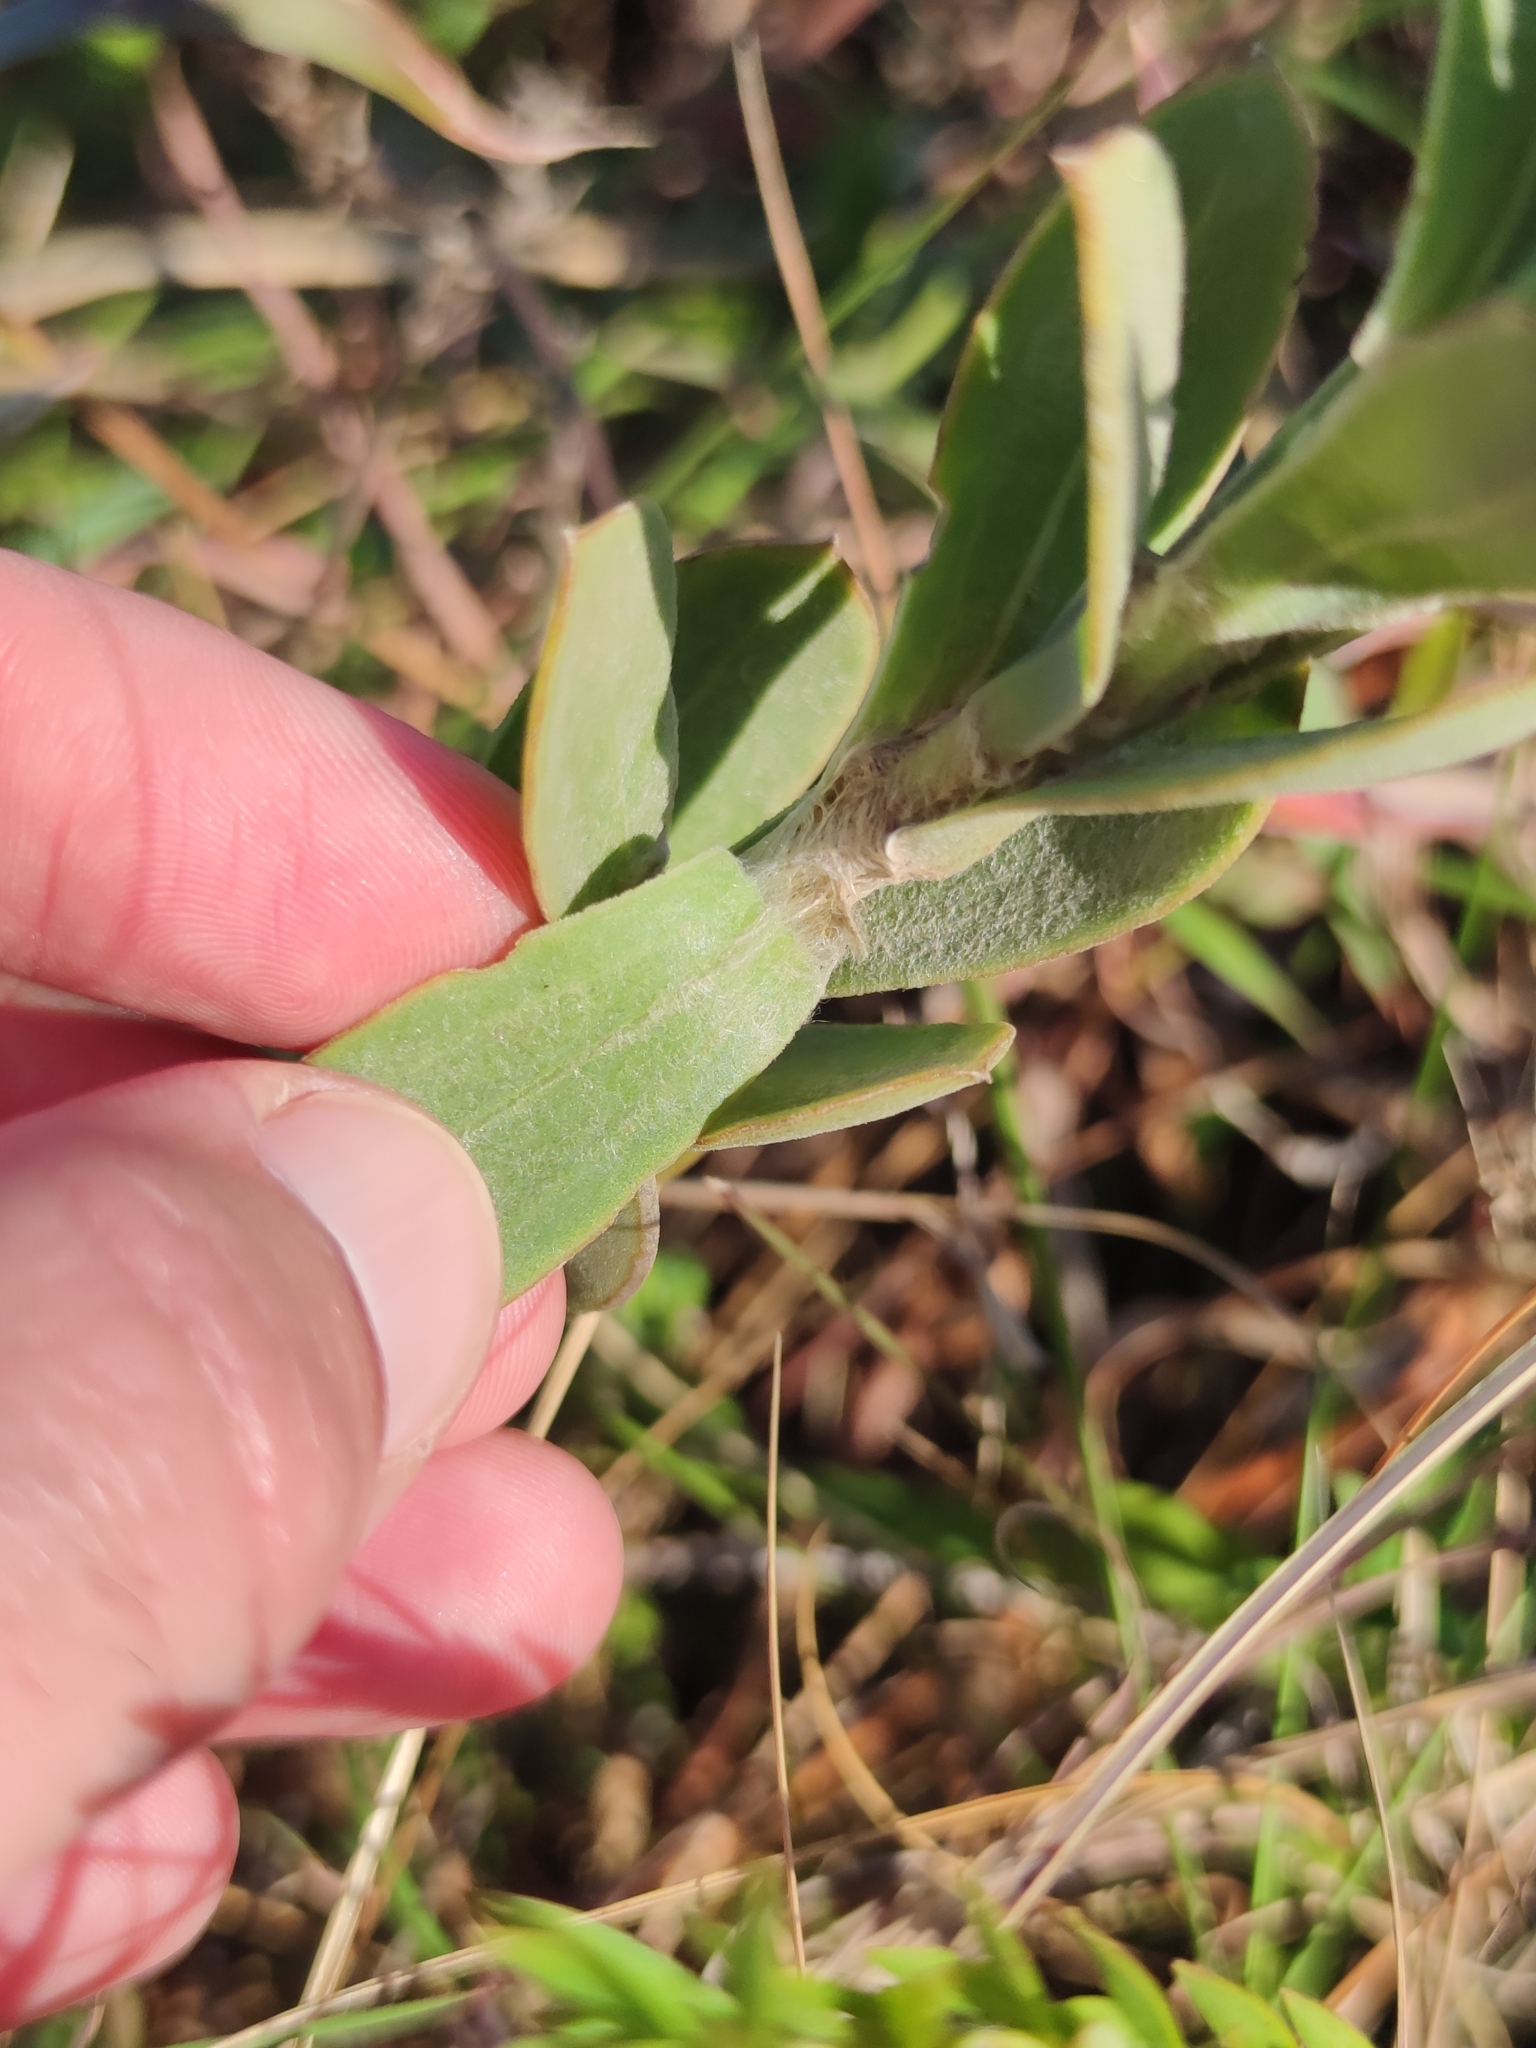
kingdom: Plantae
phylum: Tracheophyta
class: Magnoliopsida
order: Asterales
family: Asteraceae
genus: Osteospermum
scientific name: Osteospermum imbricatum
